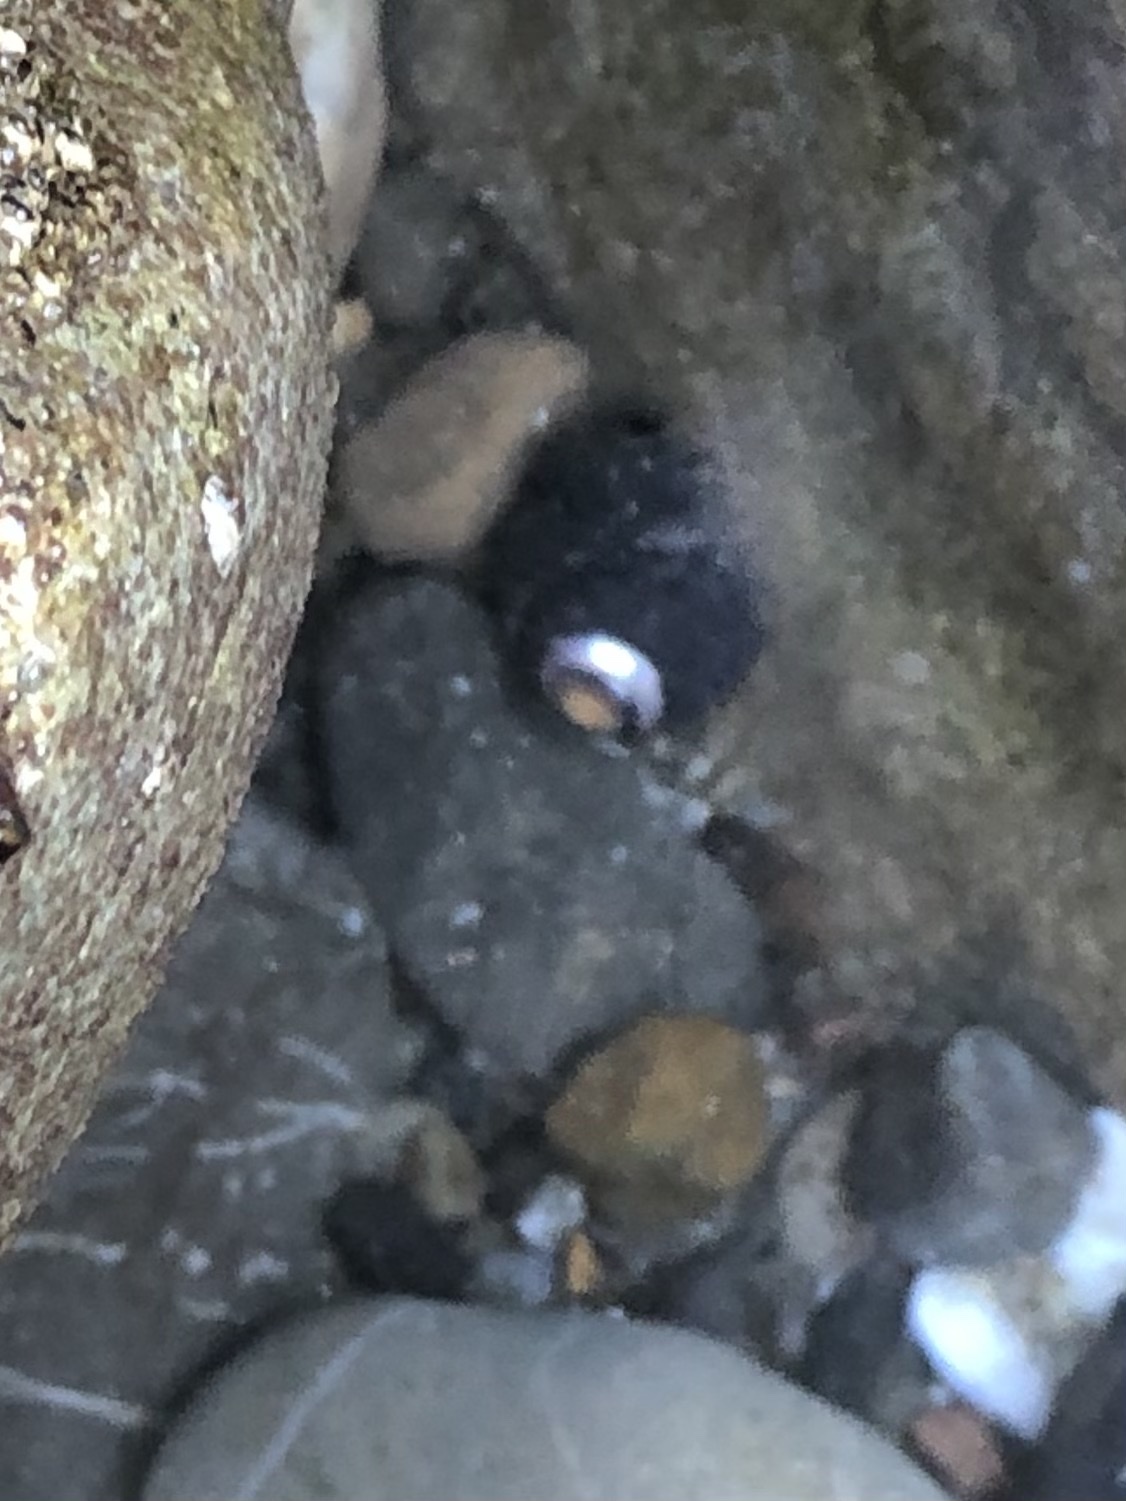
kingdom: Animalia
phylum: Mollusca
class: Gastropoda
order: Trochida
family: Tegulidae
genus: Tegula
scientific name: Tegula funebralis
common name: Black tegula
